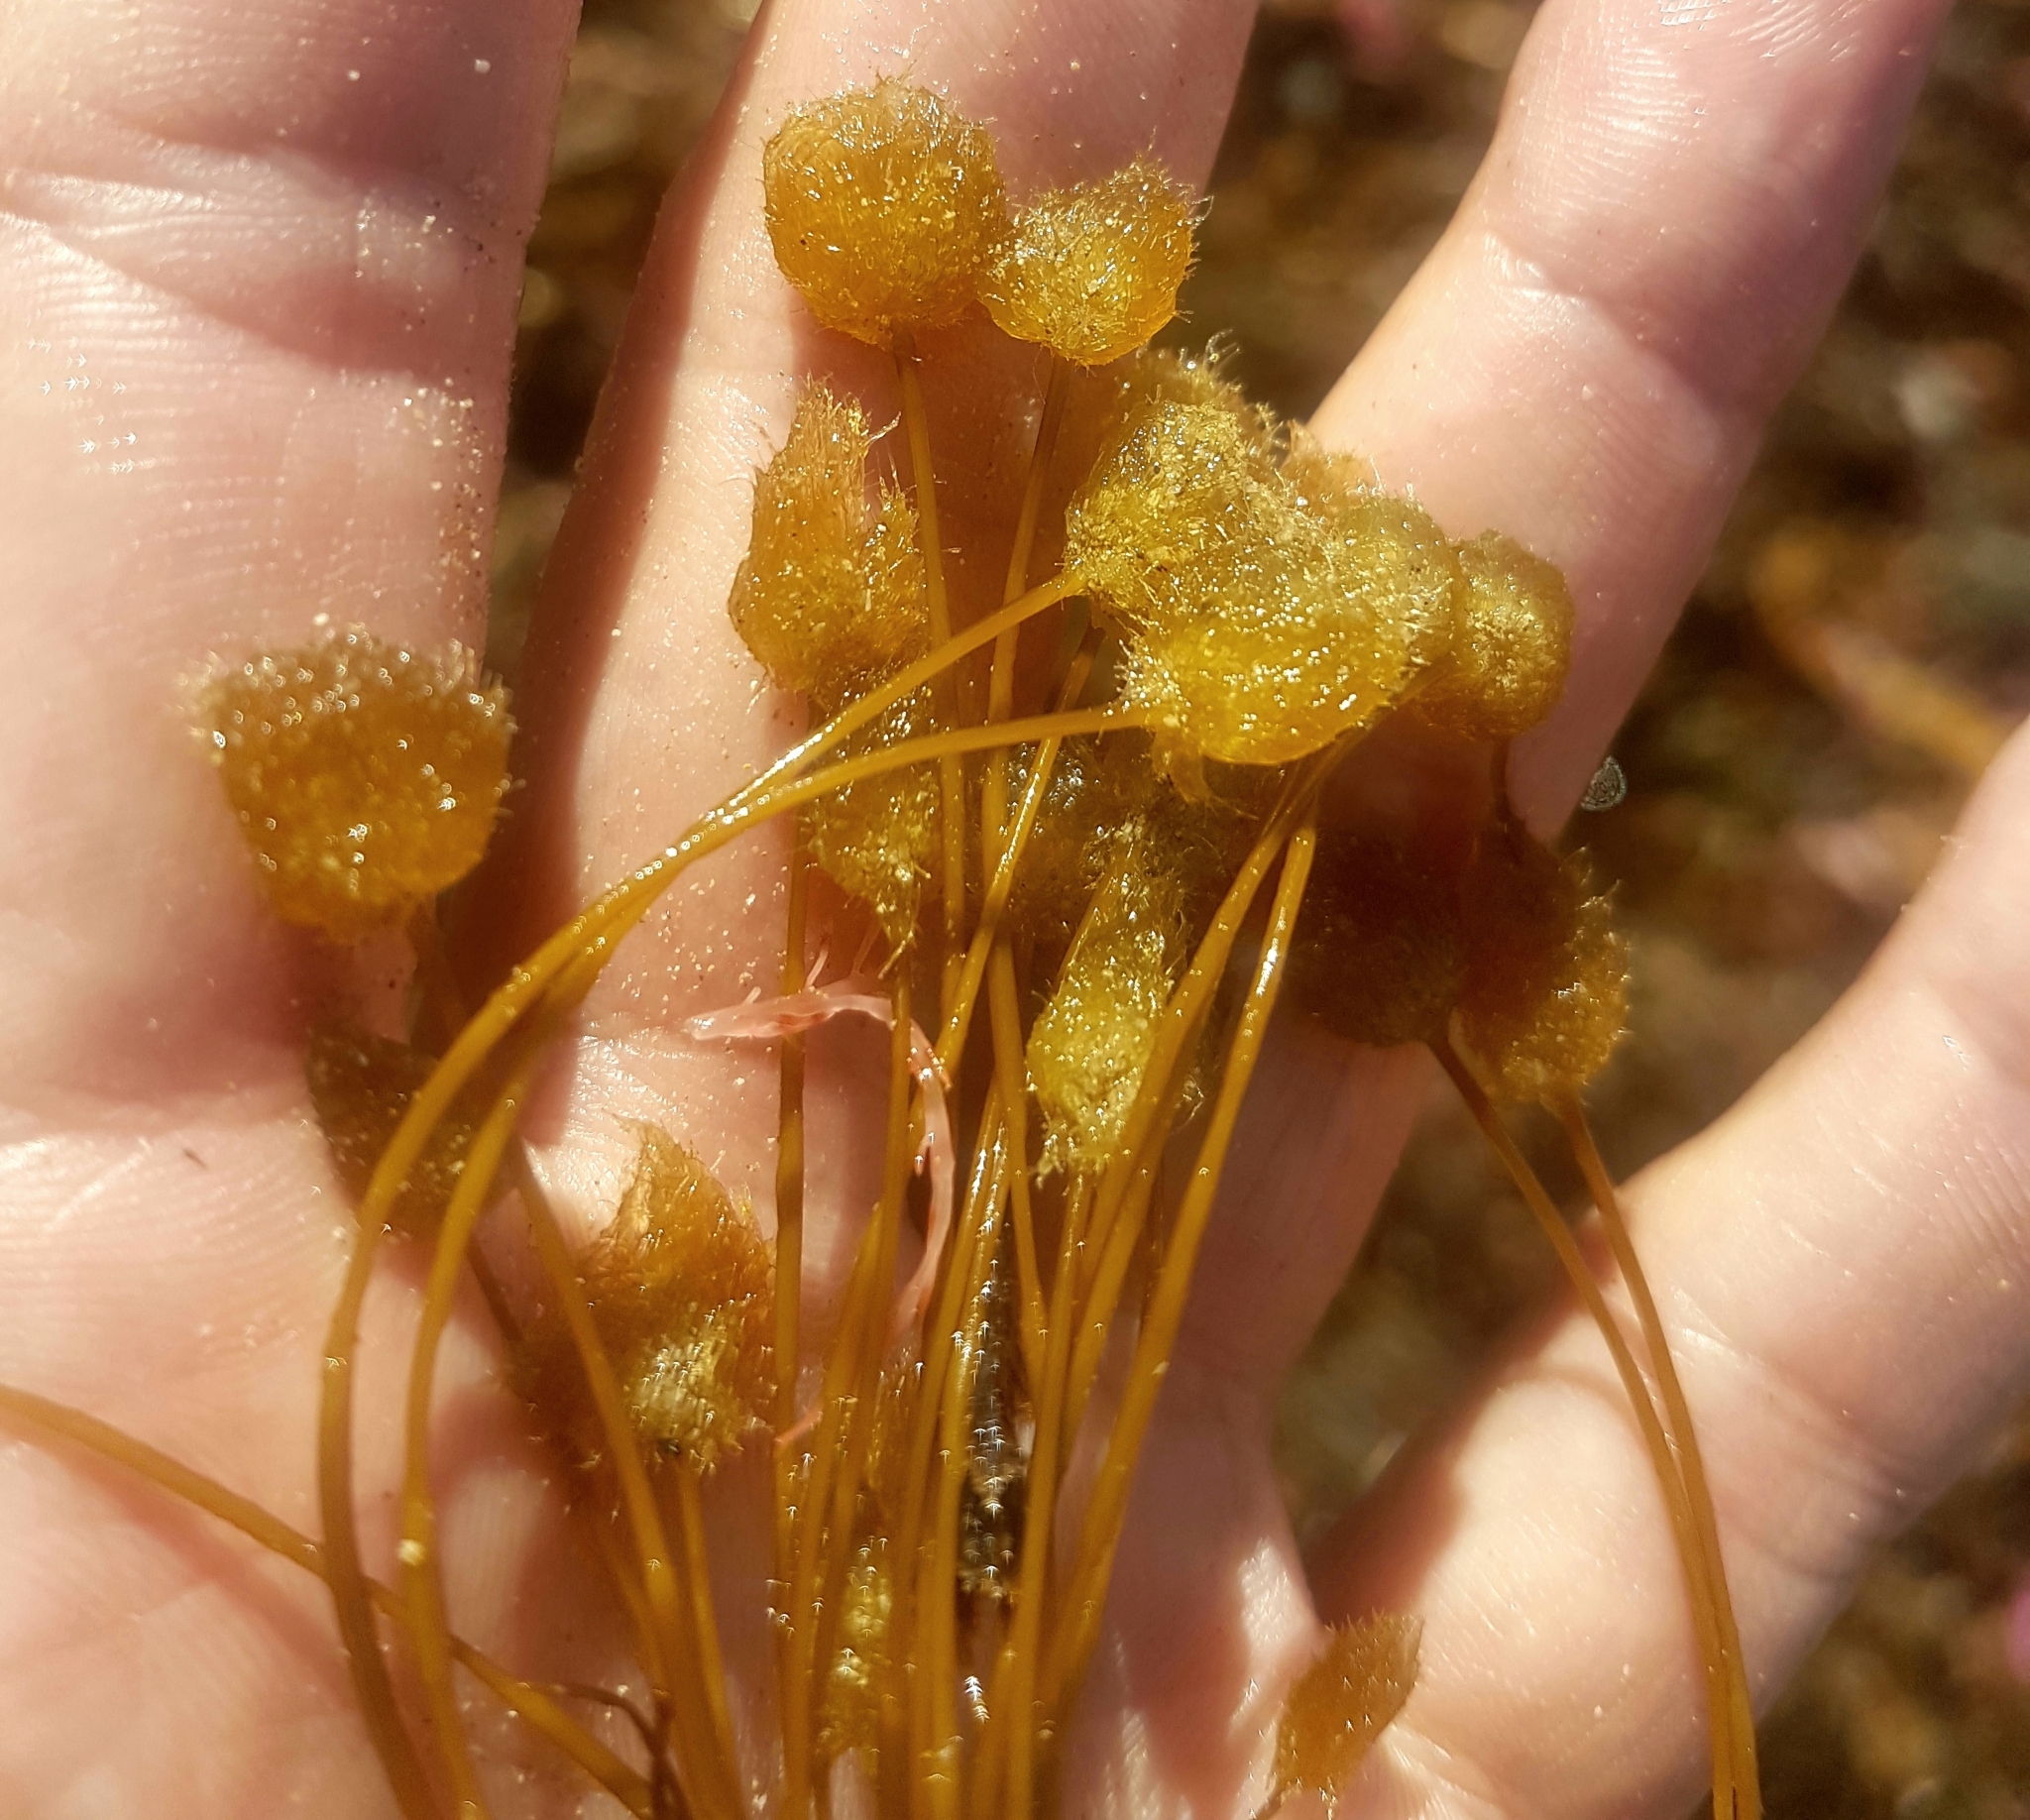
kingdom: Chromista
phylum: Ochrophyta
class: Phaeophyceae
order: Sporochnales
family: Sporochnaceae
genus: Bellotia
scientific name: Bellotia
